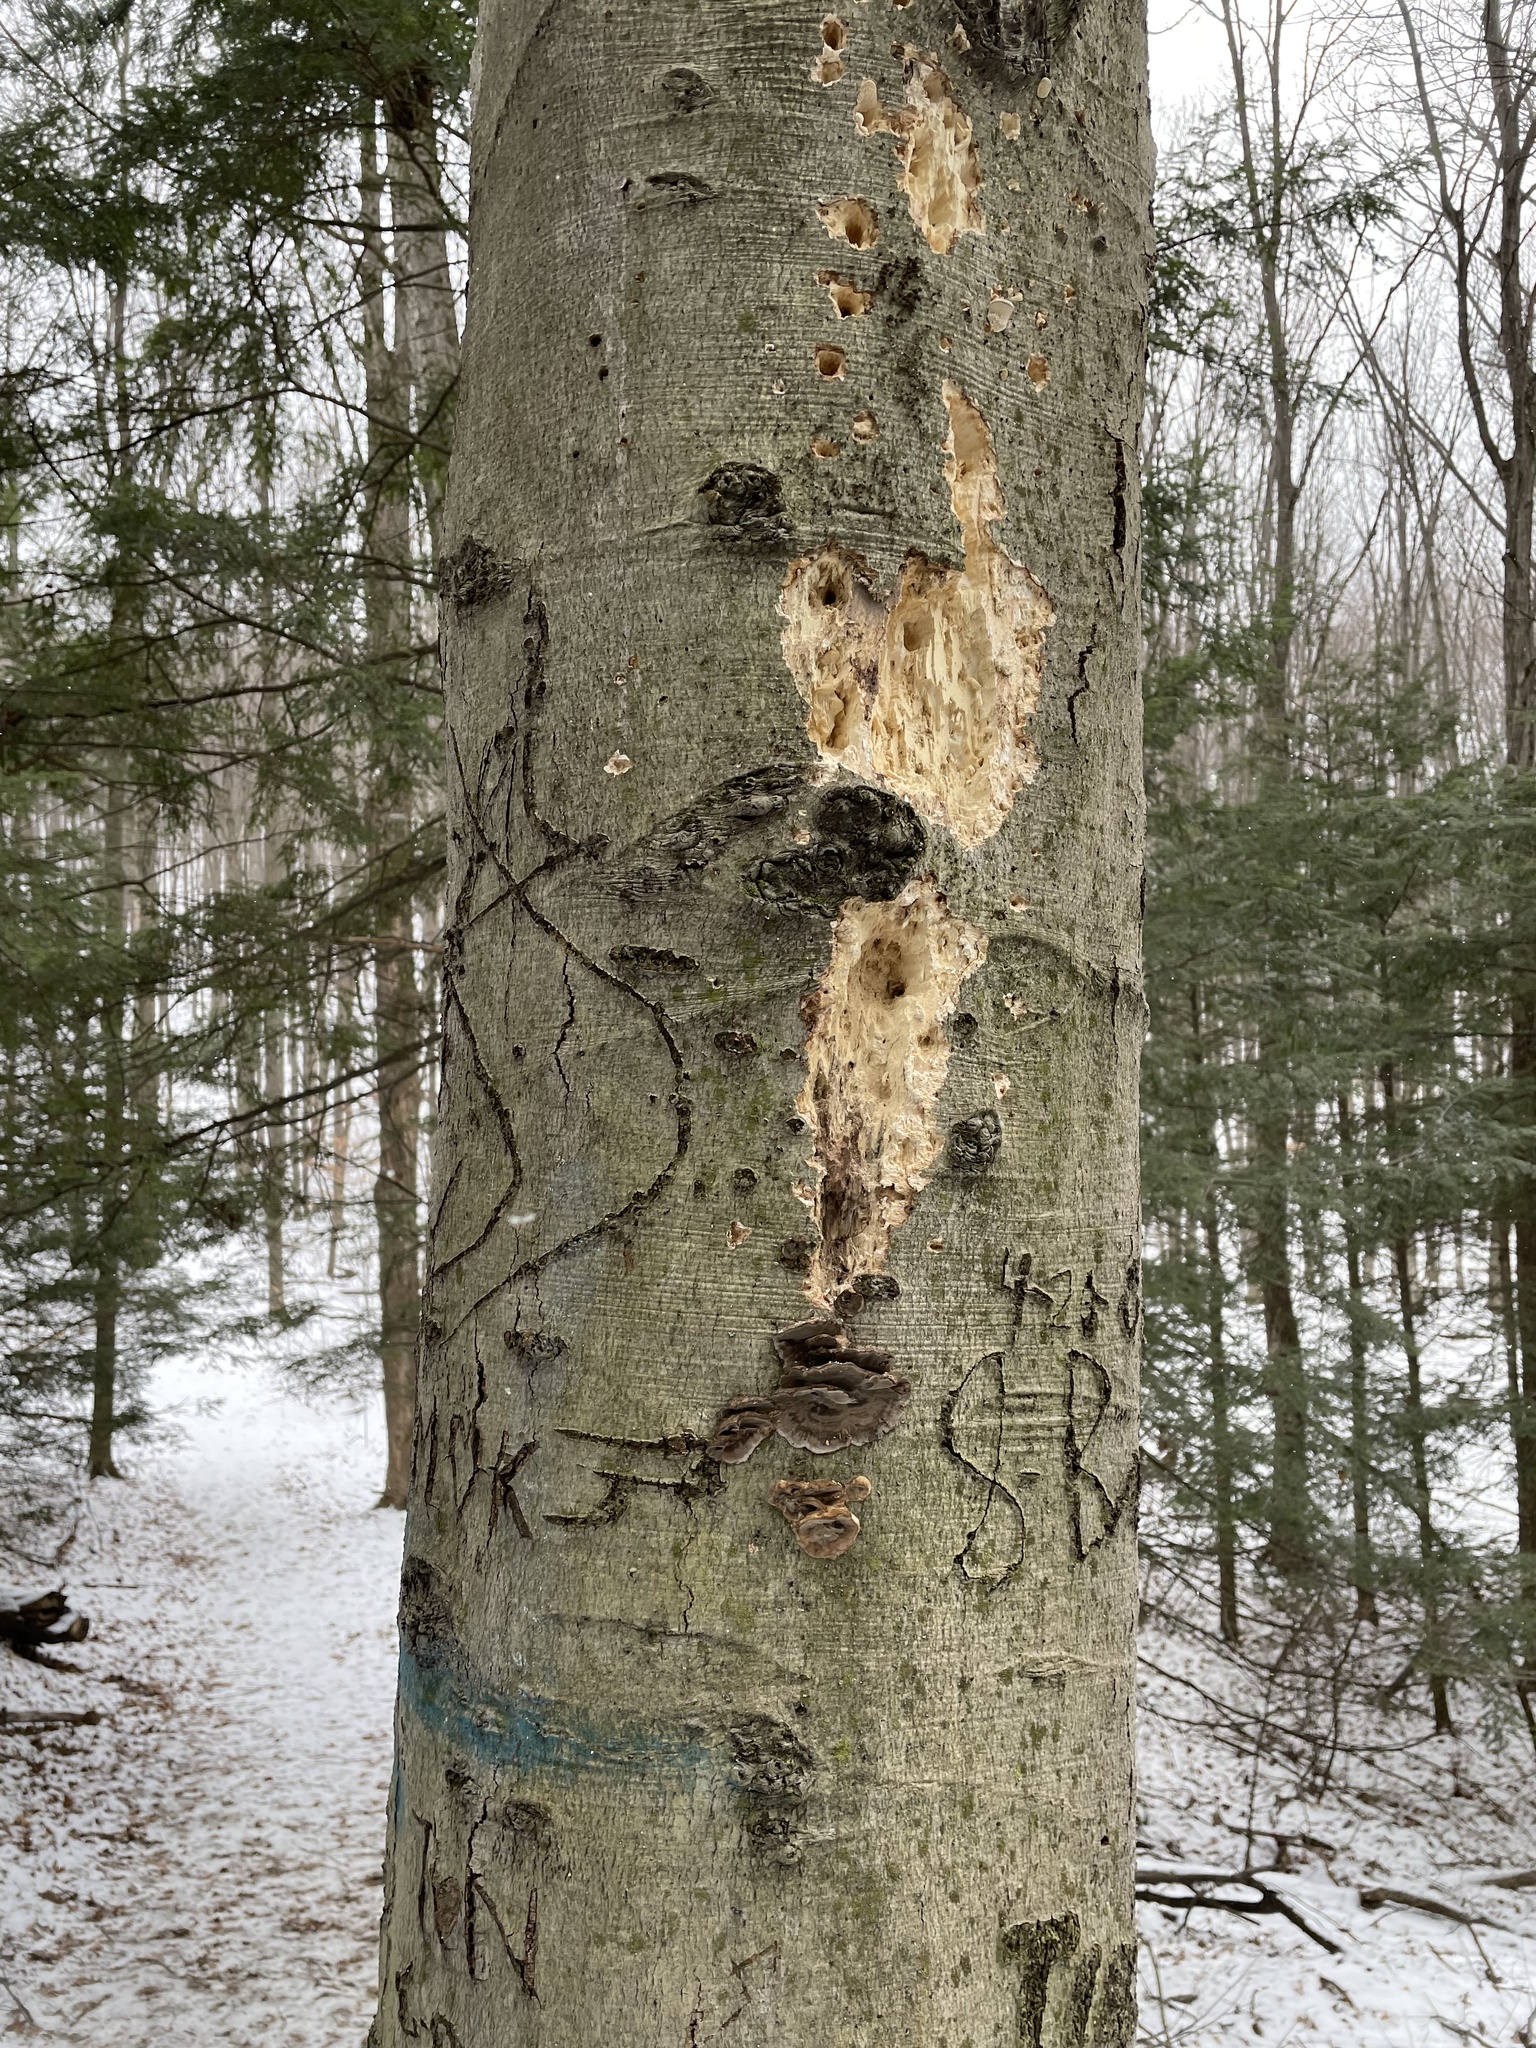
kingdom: Plantae
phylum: Tracheophyta
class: Magnoliopsida
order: Fagales
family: Fagaceae
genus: Fagus
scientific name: Fagus grandifolia
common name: American beech
